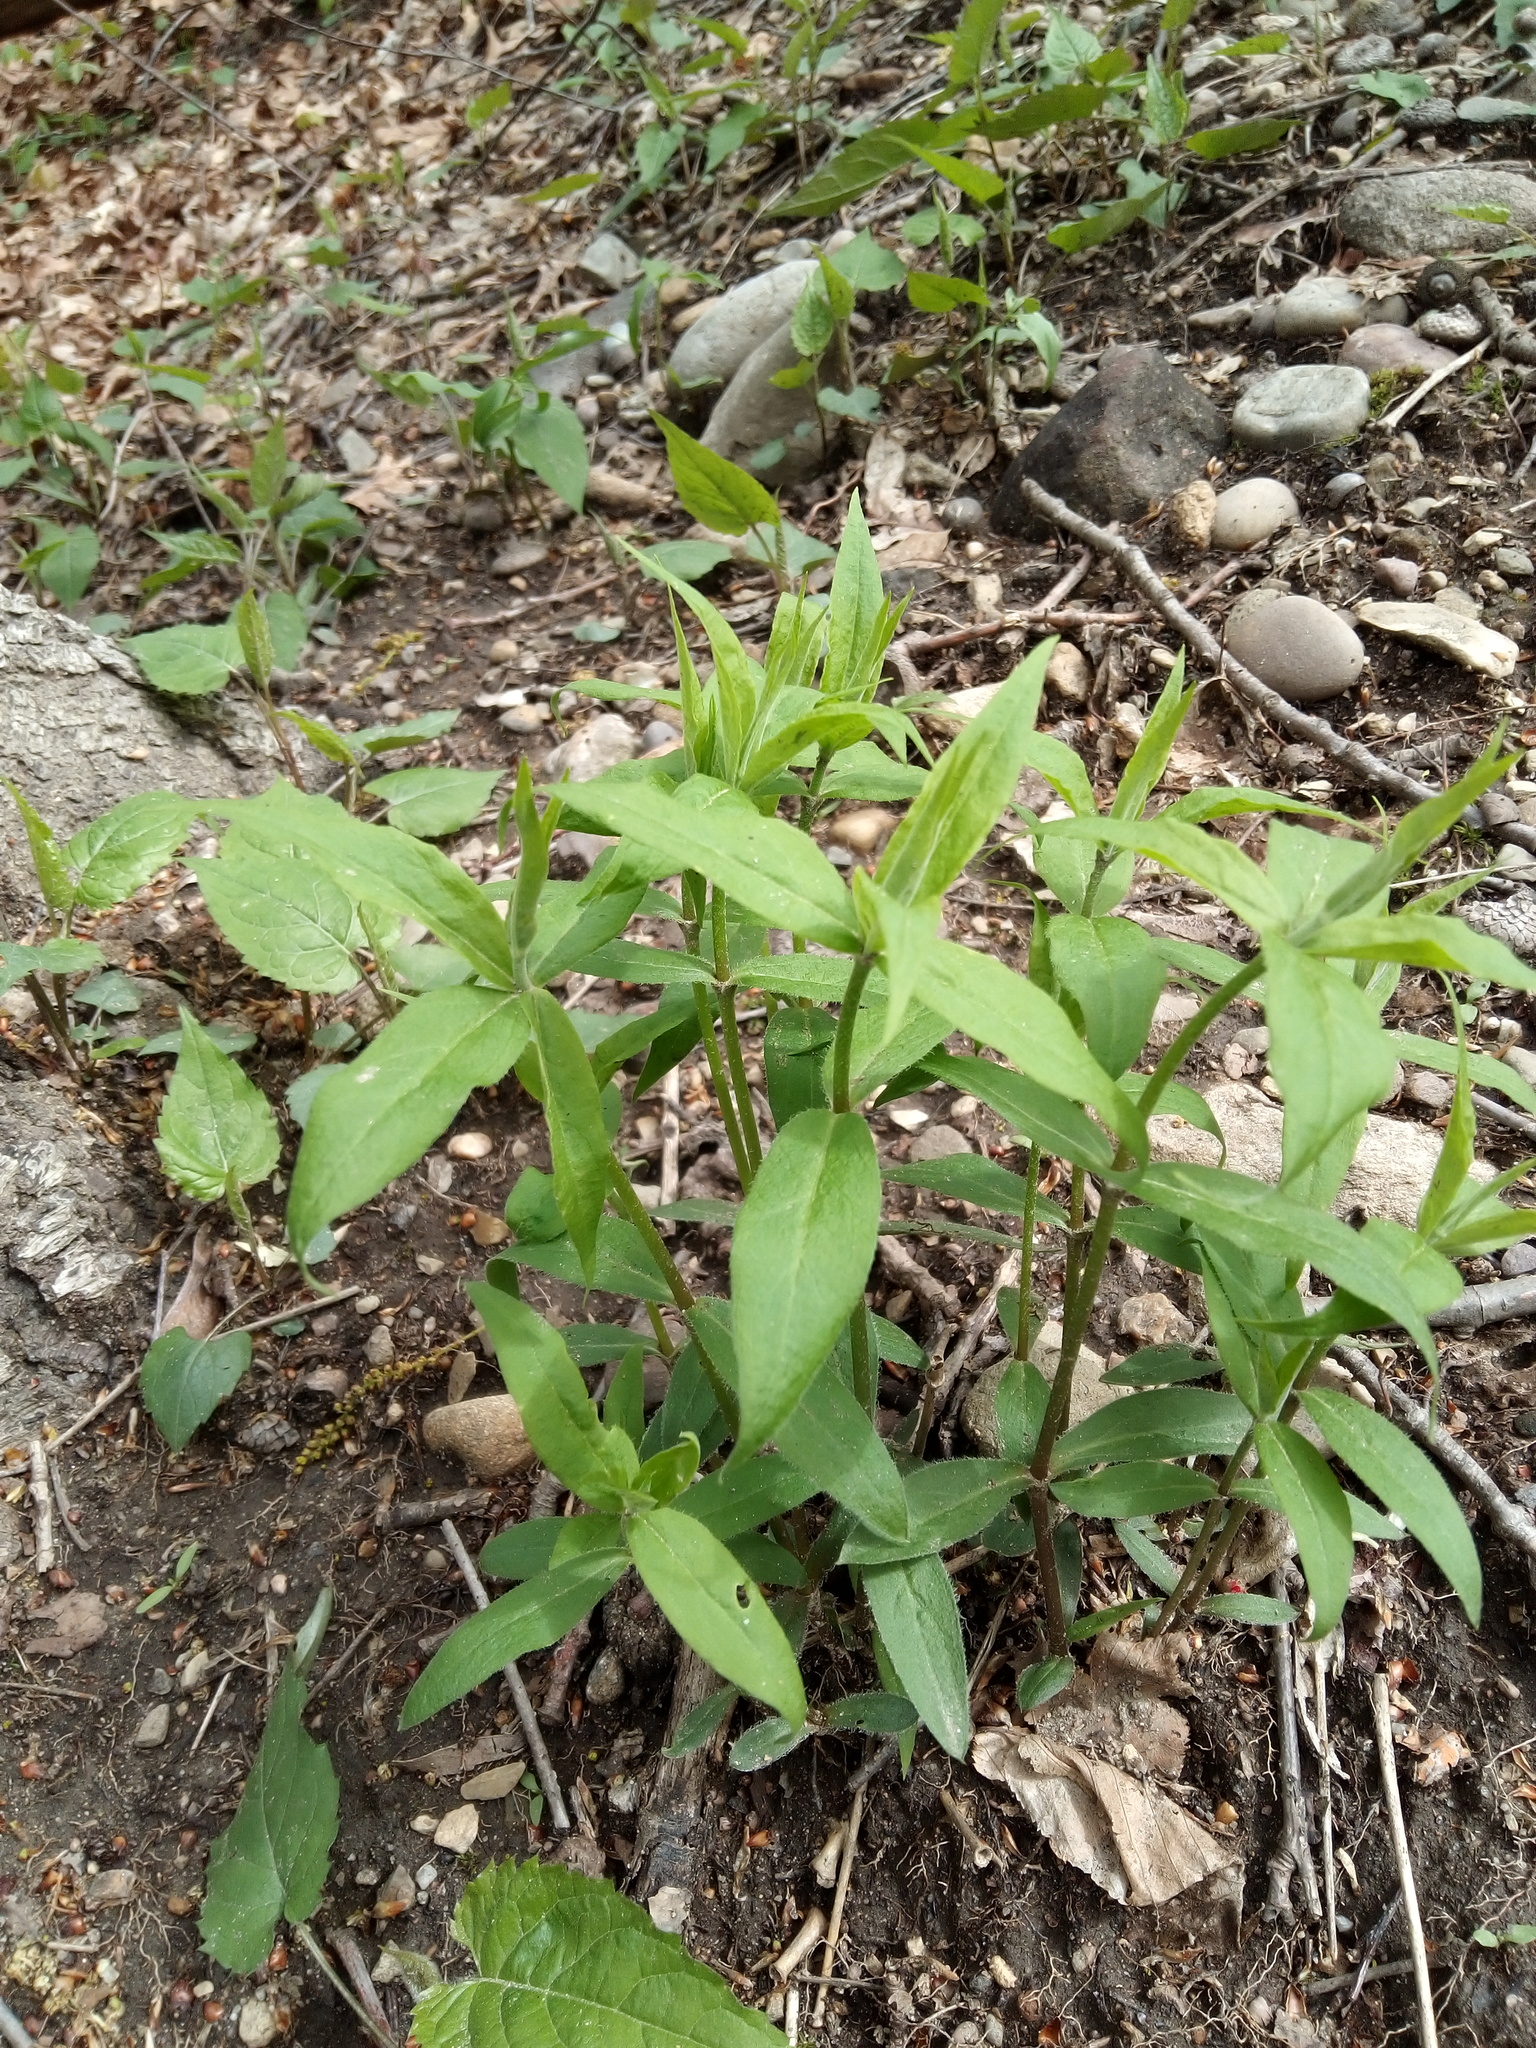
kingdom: Plantae
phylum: Tracheophyta
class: Magnoliopsida
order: Caryophyllales
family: Caryophyllaceae
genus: Silene
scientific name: Silene stellata
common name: Starry campion
